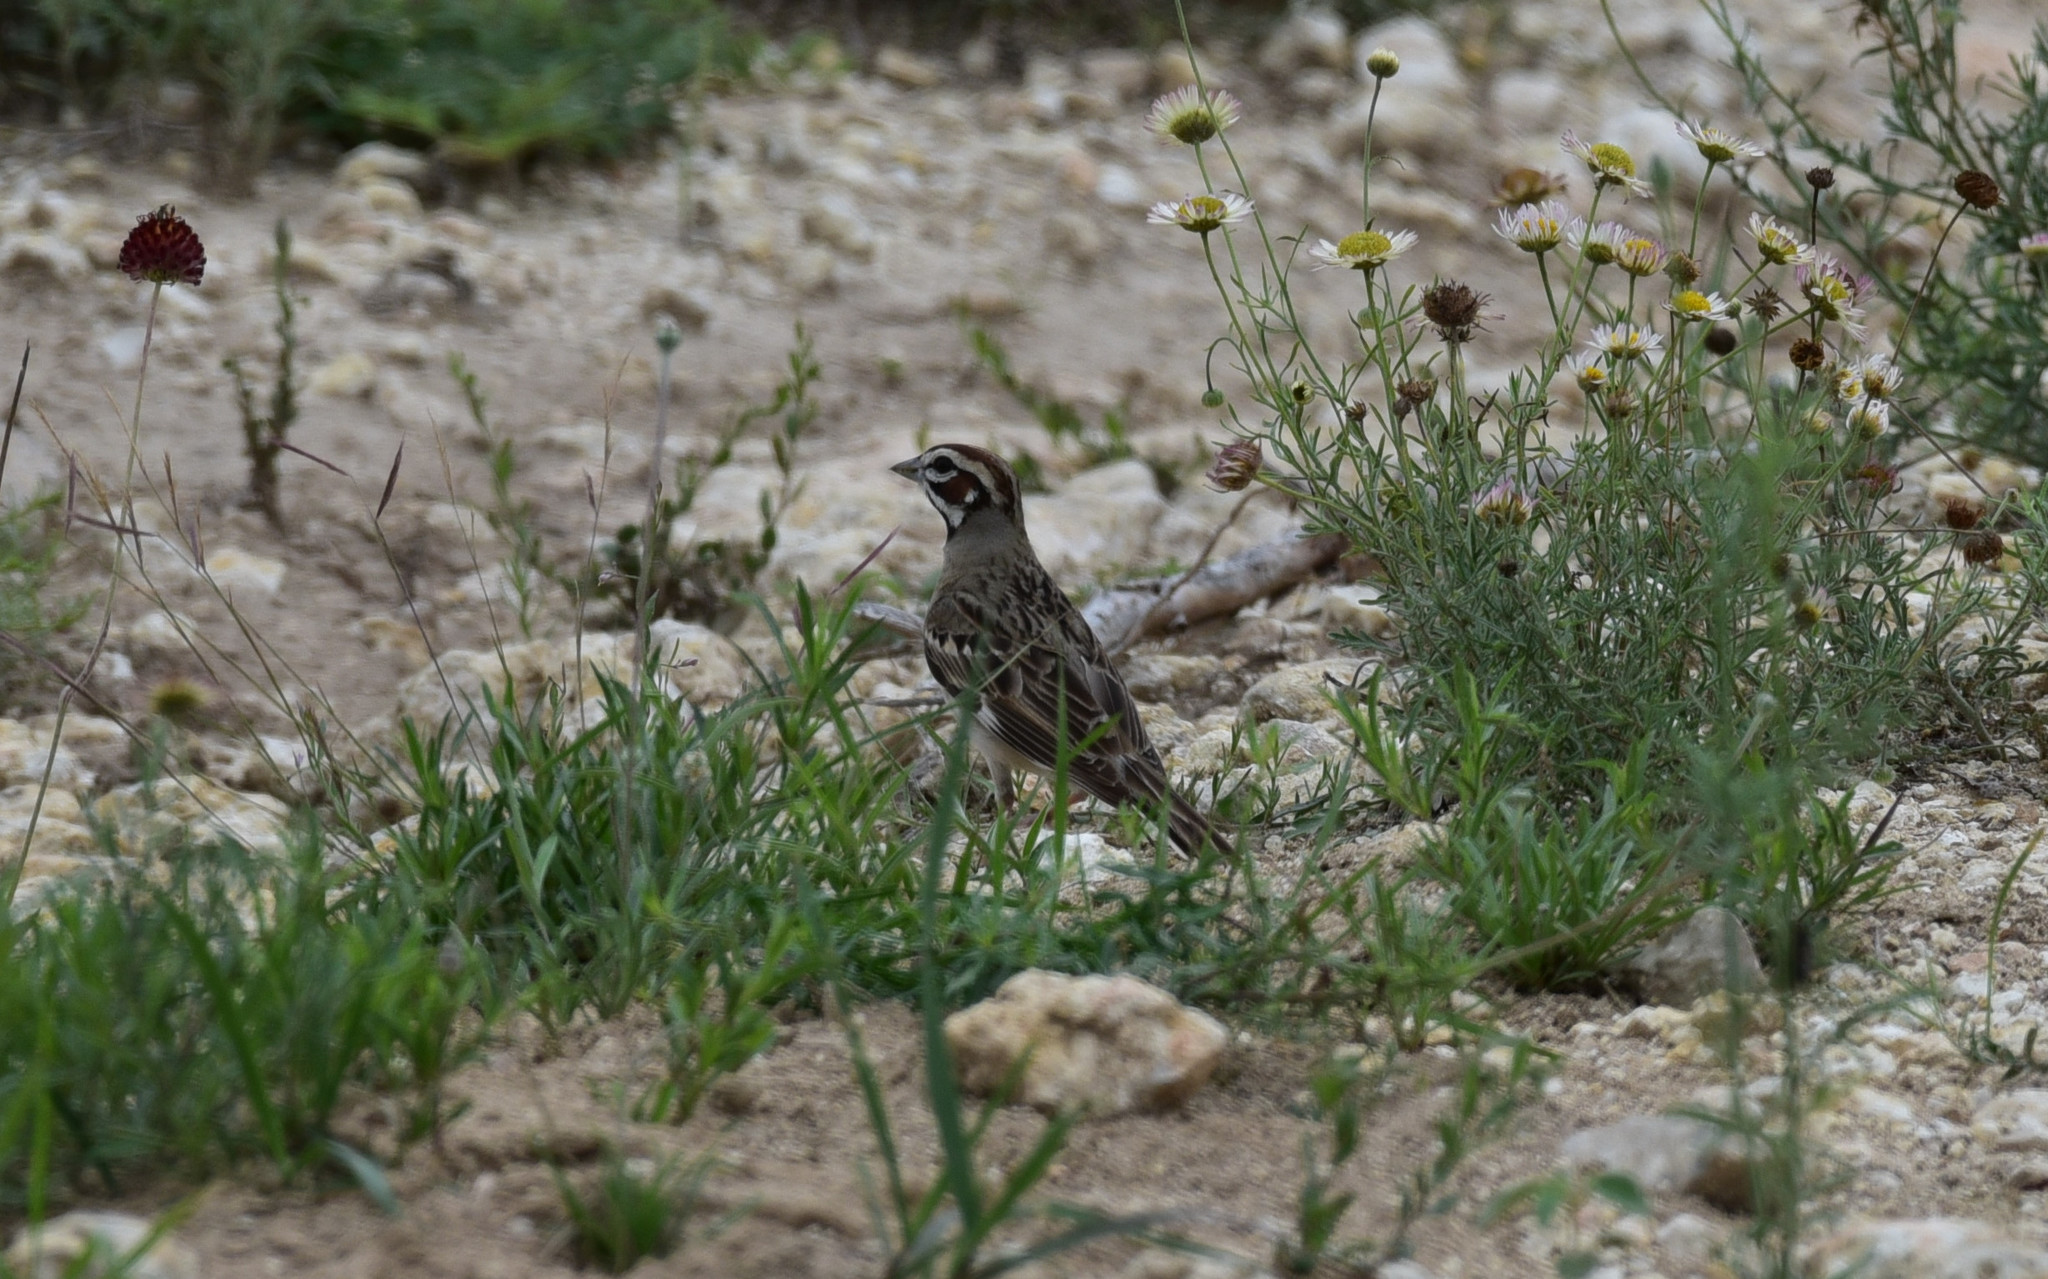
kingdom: Animalia
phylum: Chordata
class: Aves
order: Passeriformes
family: Passerellidae
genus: Chondestes
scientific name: Chondestes grammacus
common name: Lark sparrow
